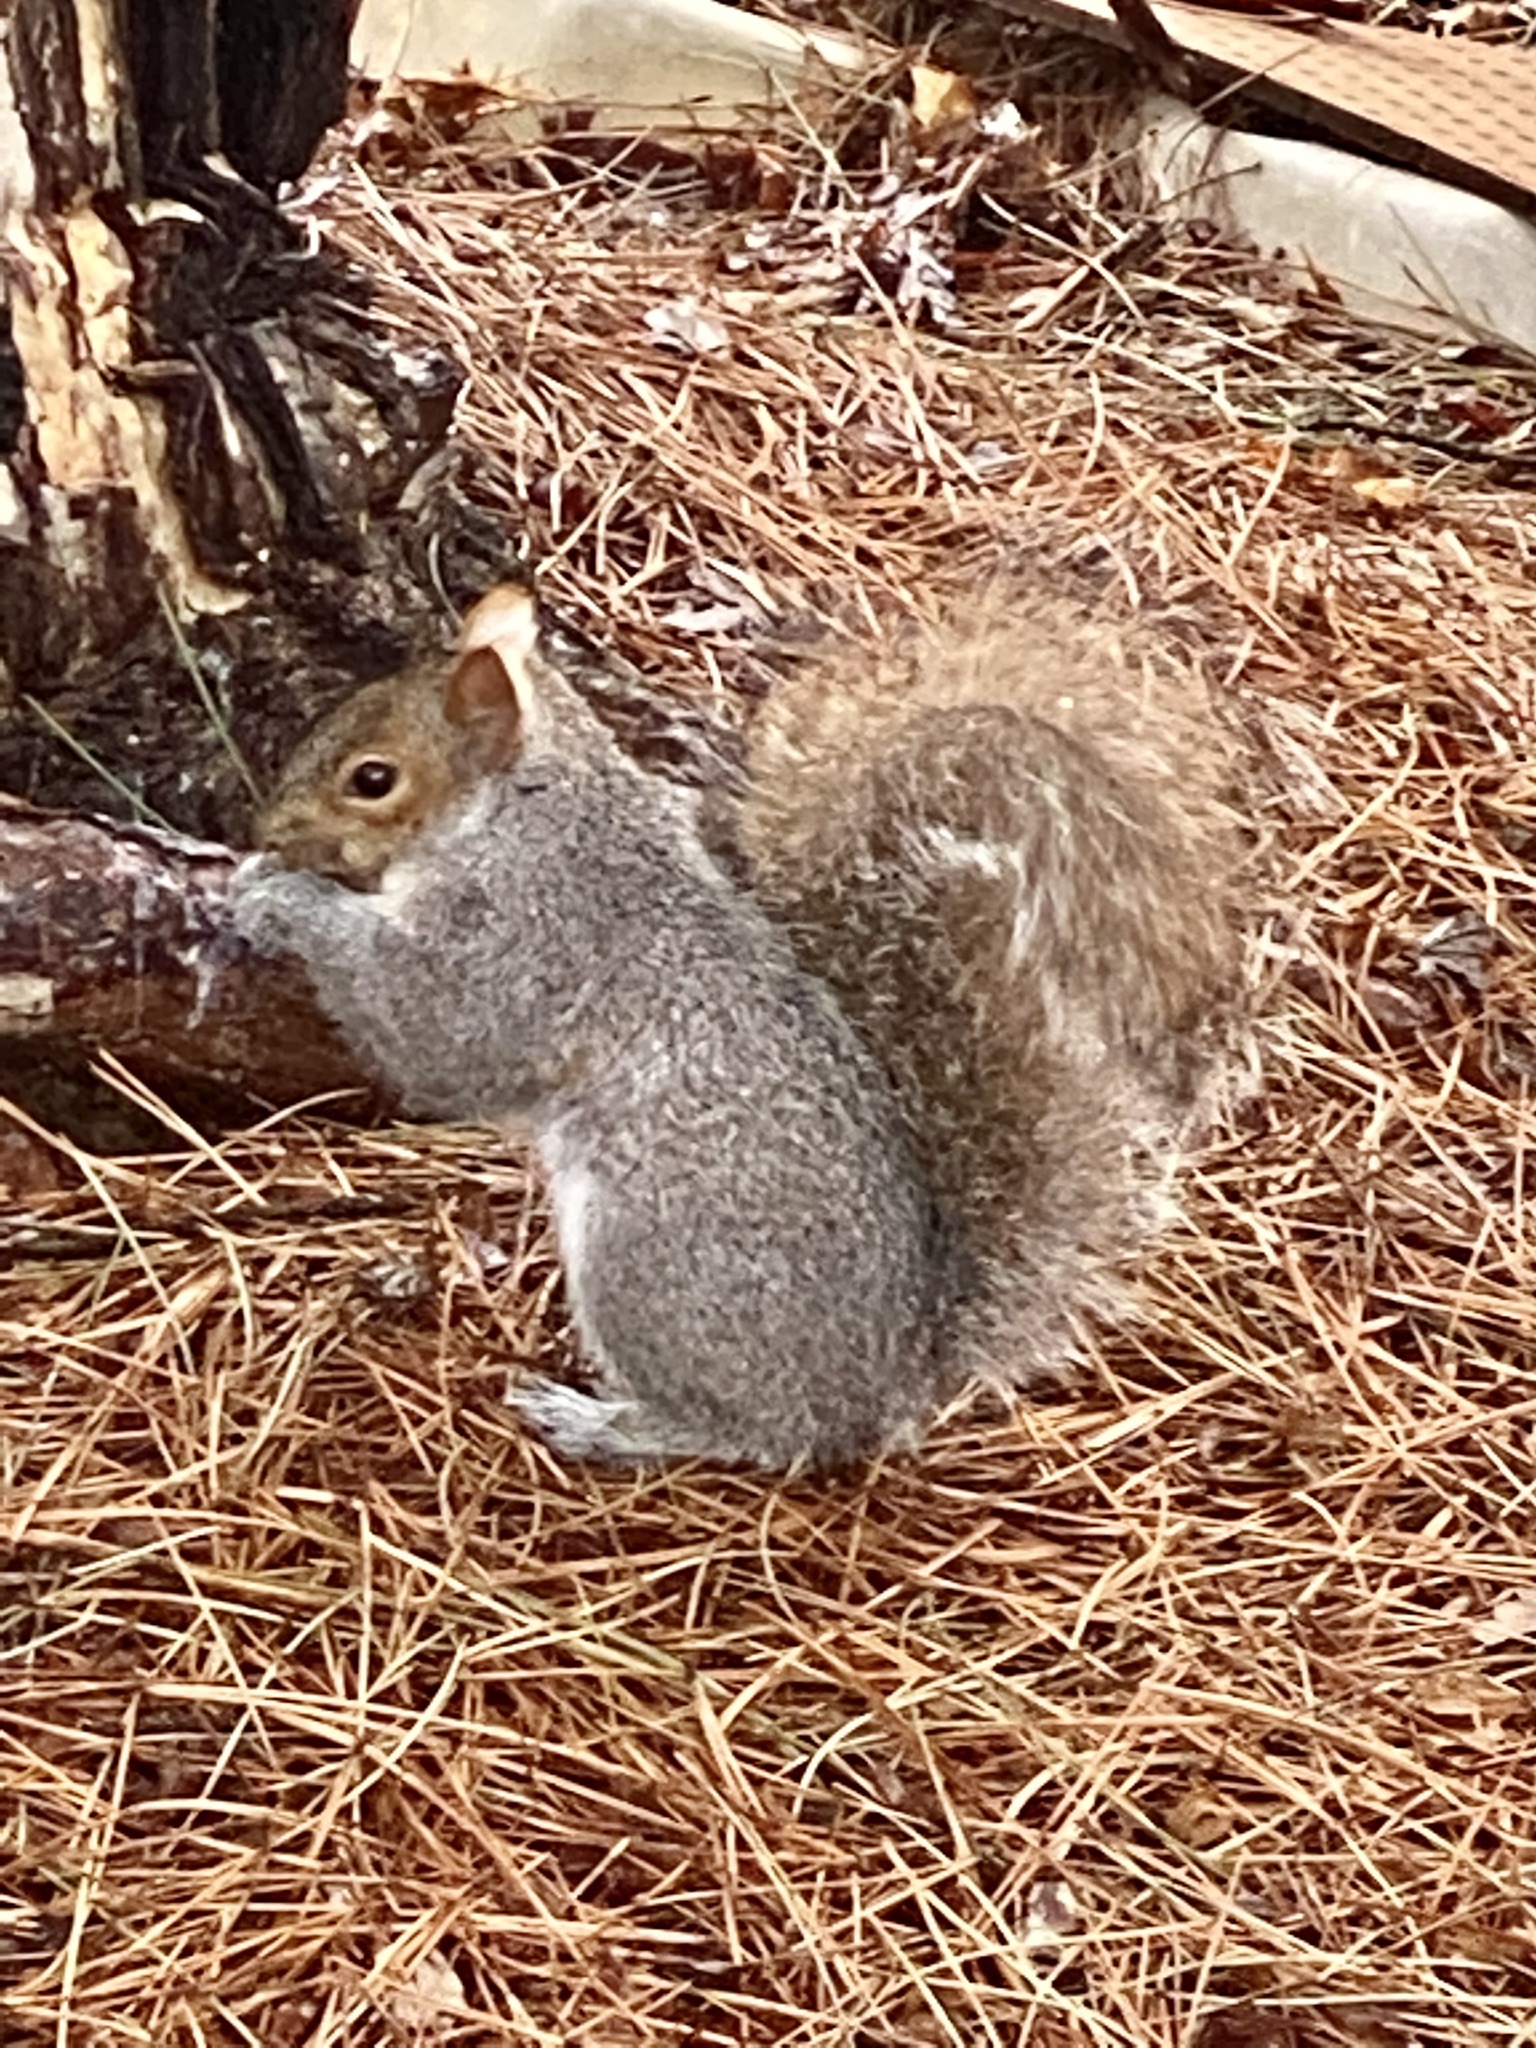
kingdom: Animalia
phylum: Chordata
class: Mammalia
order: Rodentia
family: Sciuridae
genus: Sciurus
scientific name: Sciurus carolinensis
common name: Eastern gray squirrel
